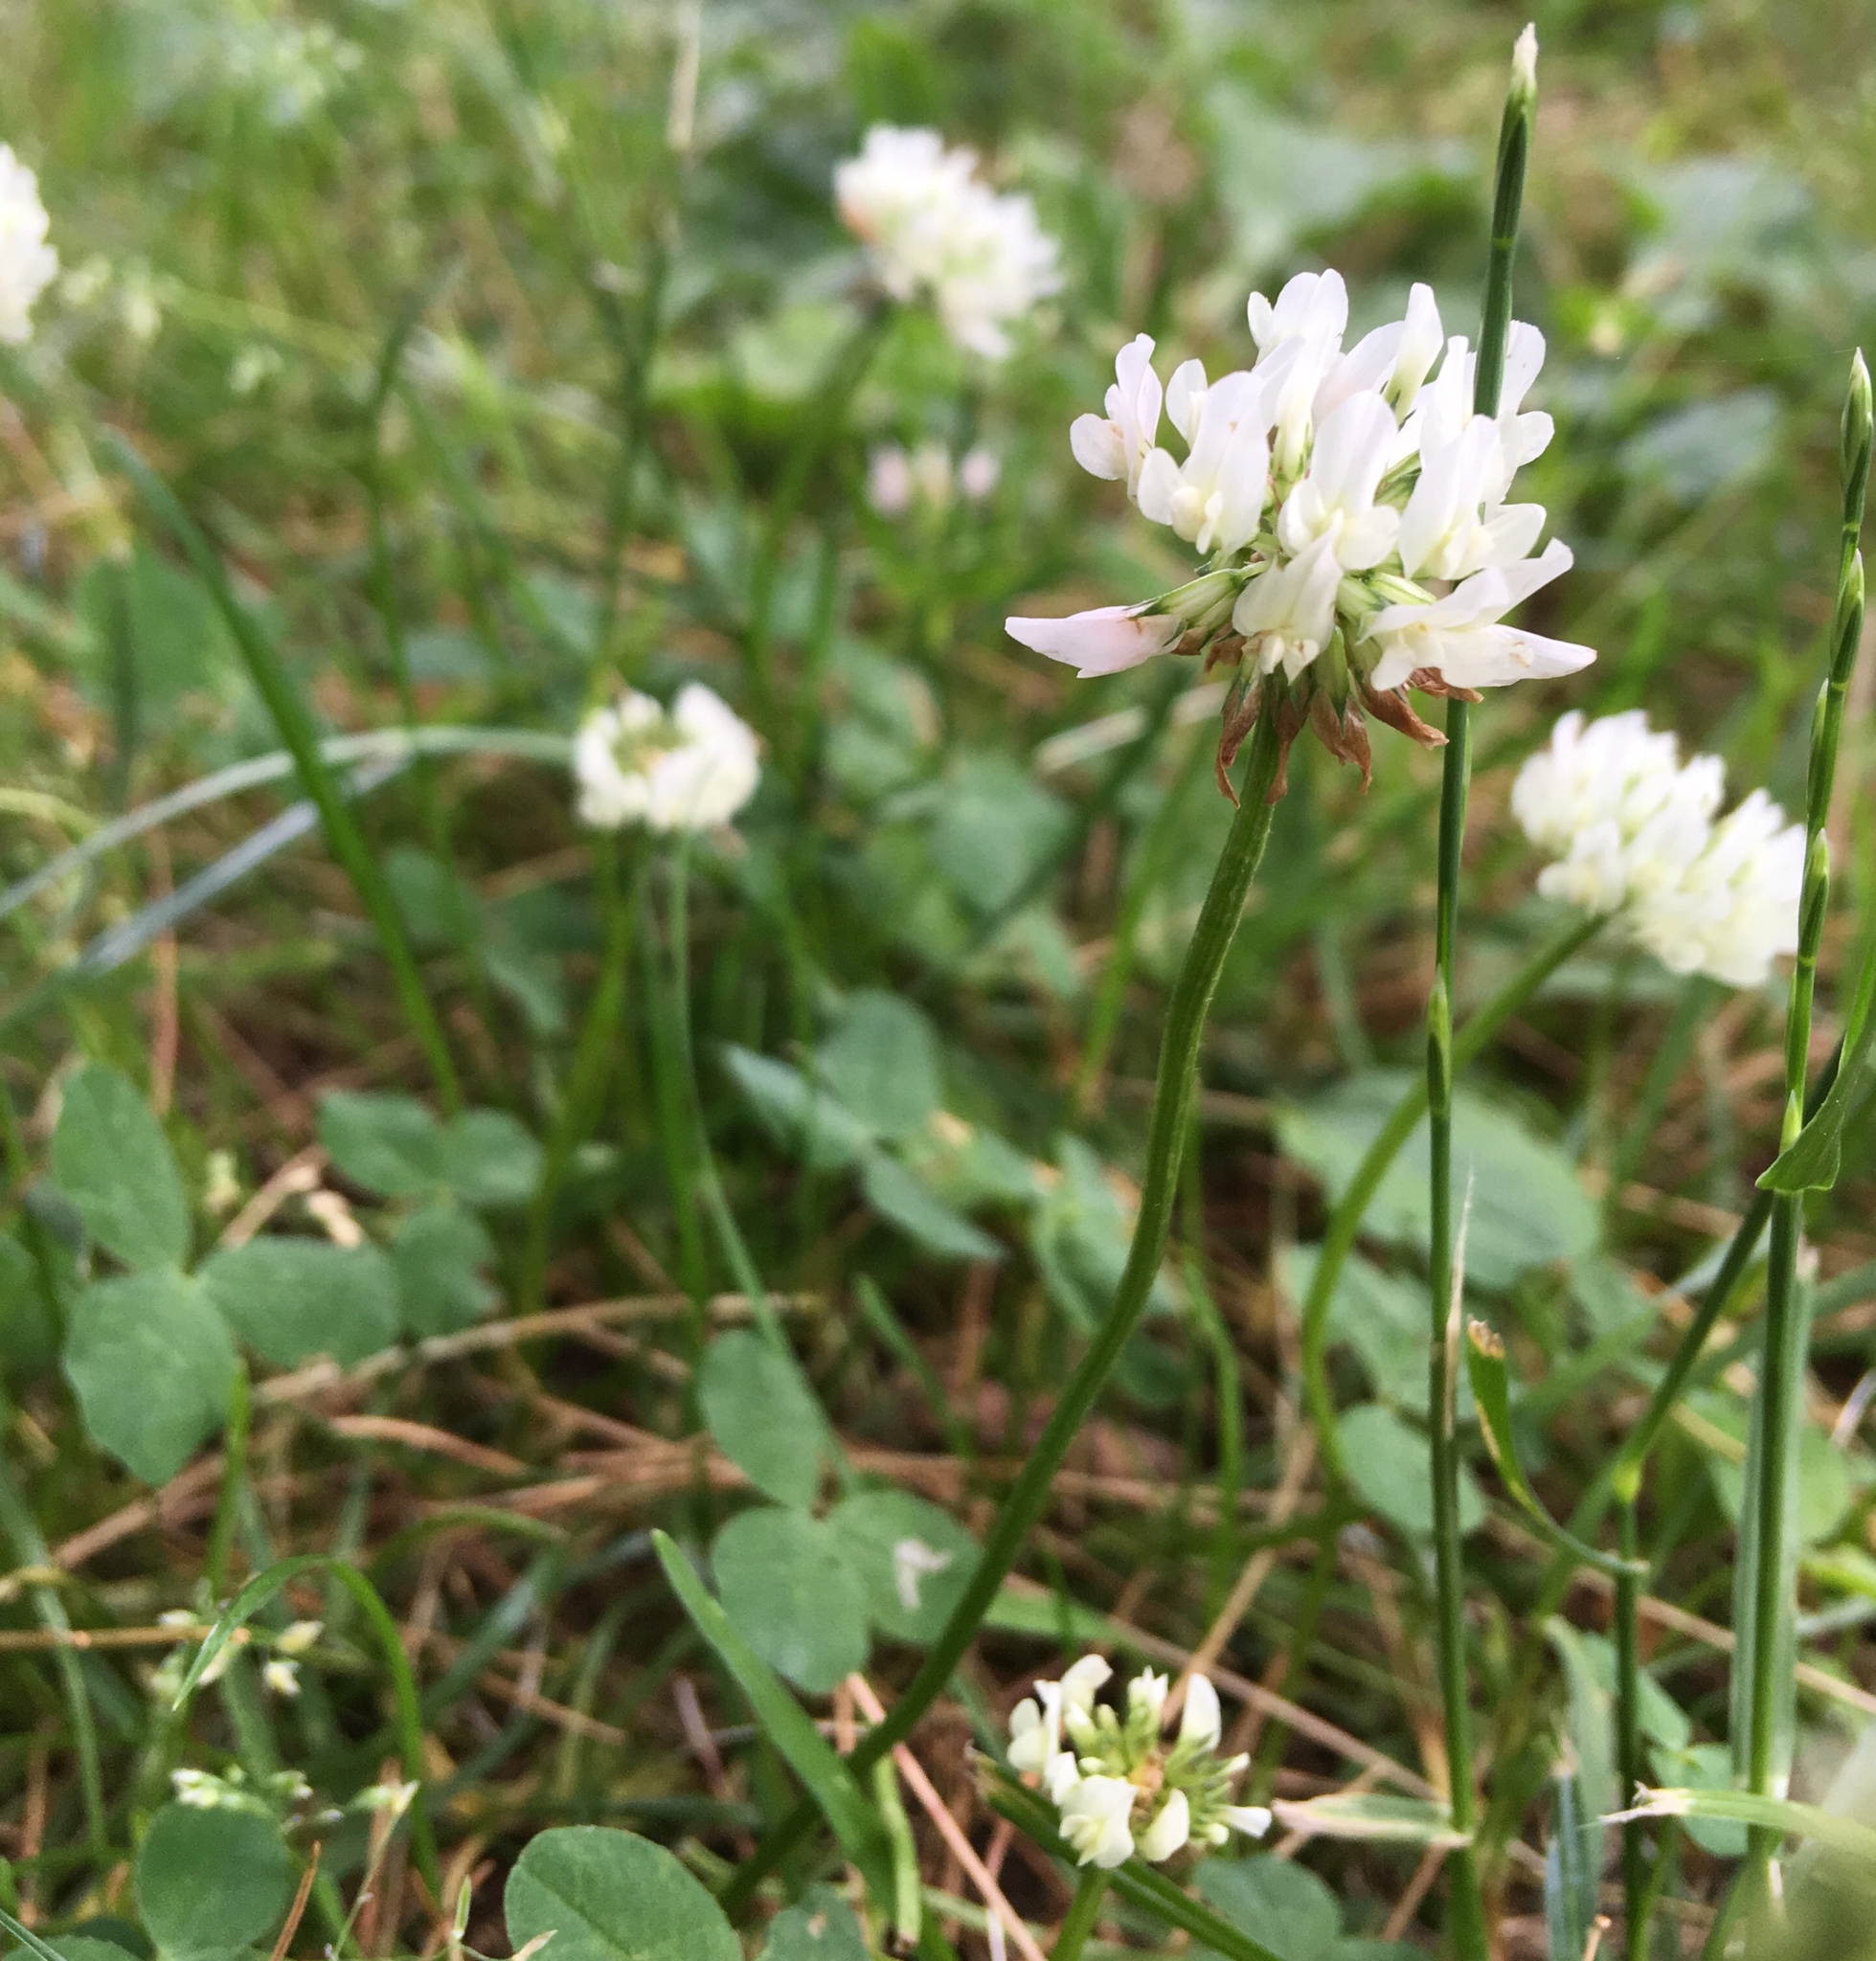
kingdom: Plantae
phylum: Tracheophyta
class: Magnoliopsida
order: Fabales
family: Fabaceae
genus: Trifolium
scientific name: Trifolium repens
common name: White clover
